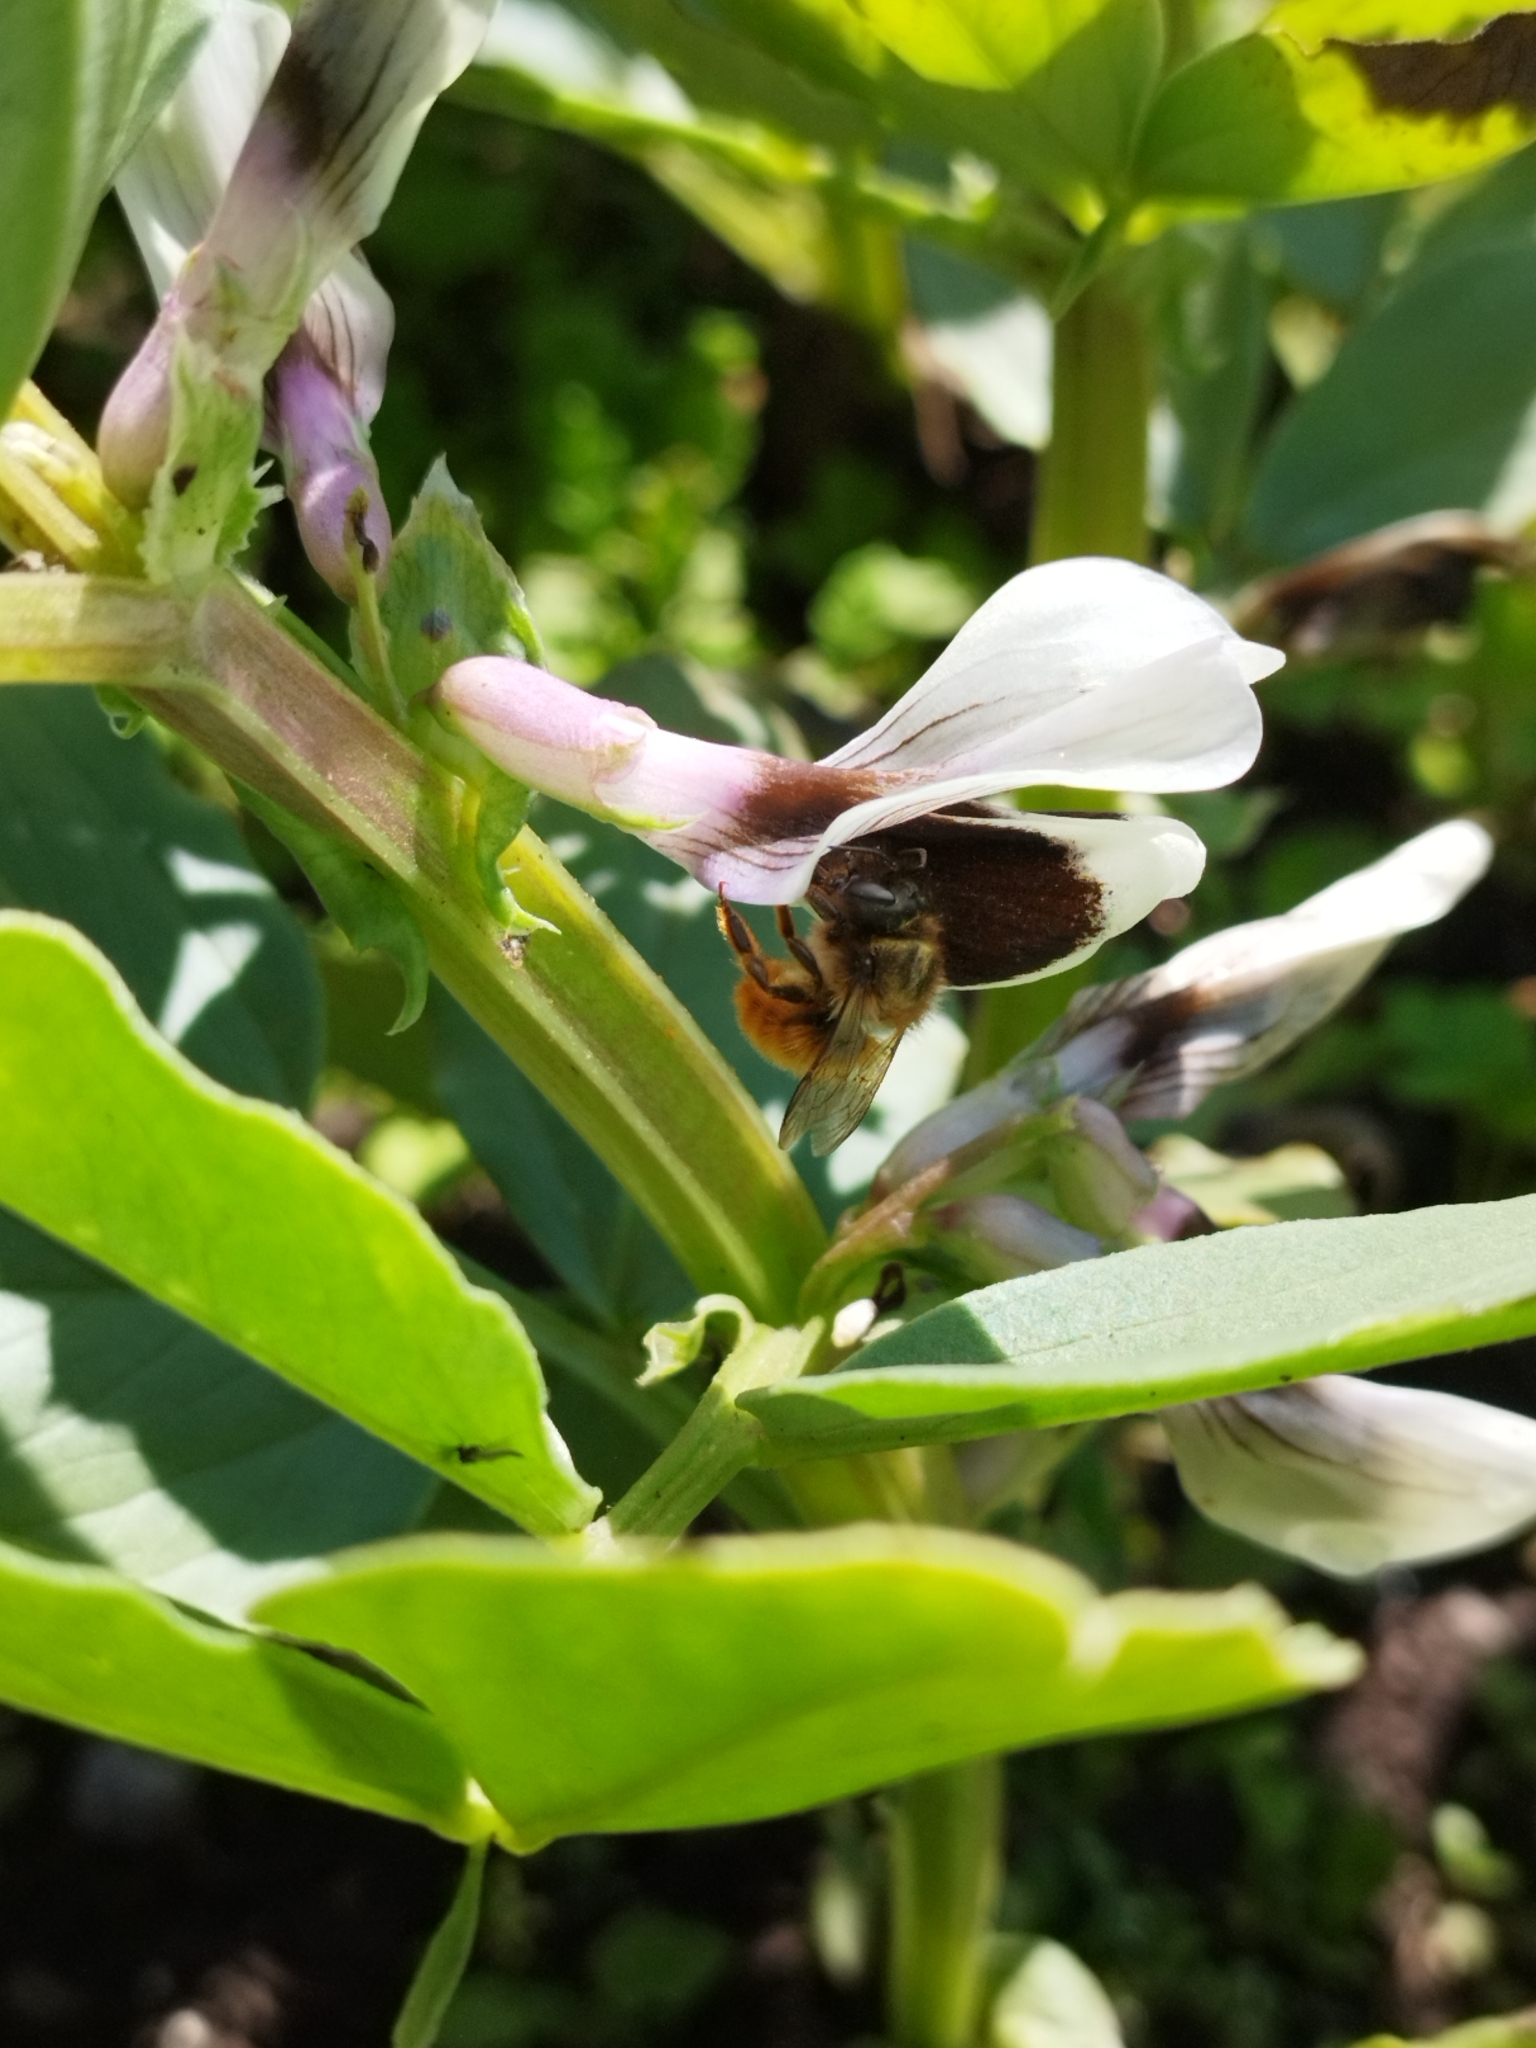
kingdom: Animalia
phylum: Arthropoda
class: Insecta
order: Hymenoptera
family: Megachilidae
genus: Osmia
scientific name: Osmia bicornis
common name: Red mason bee
